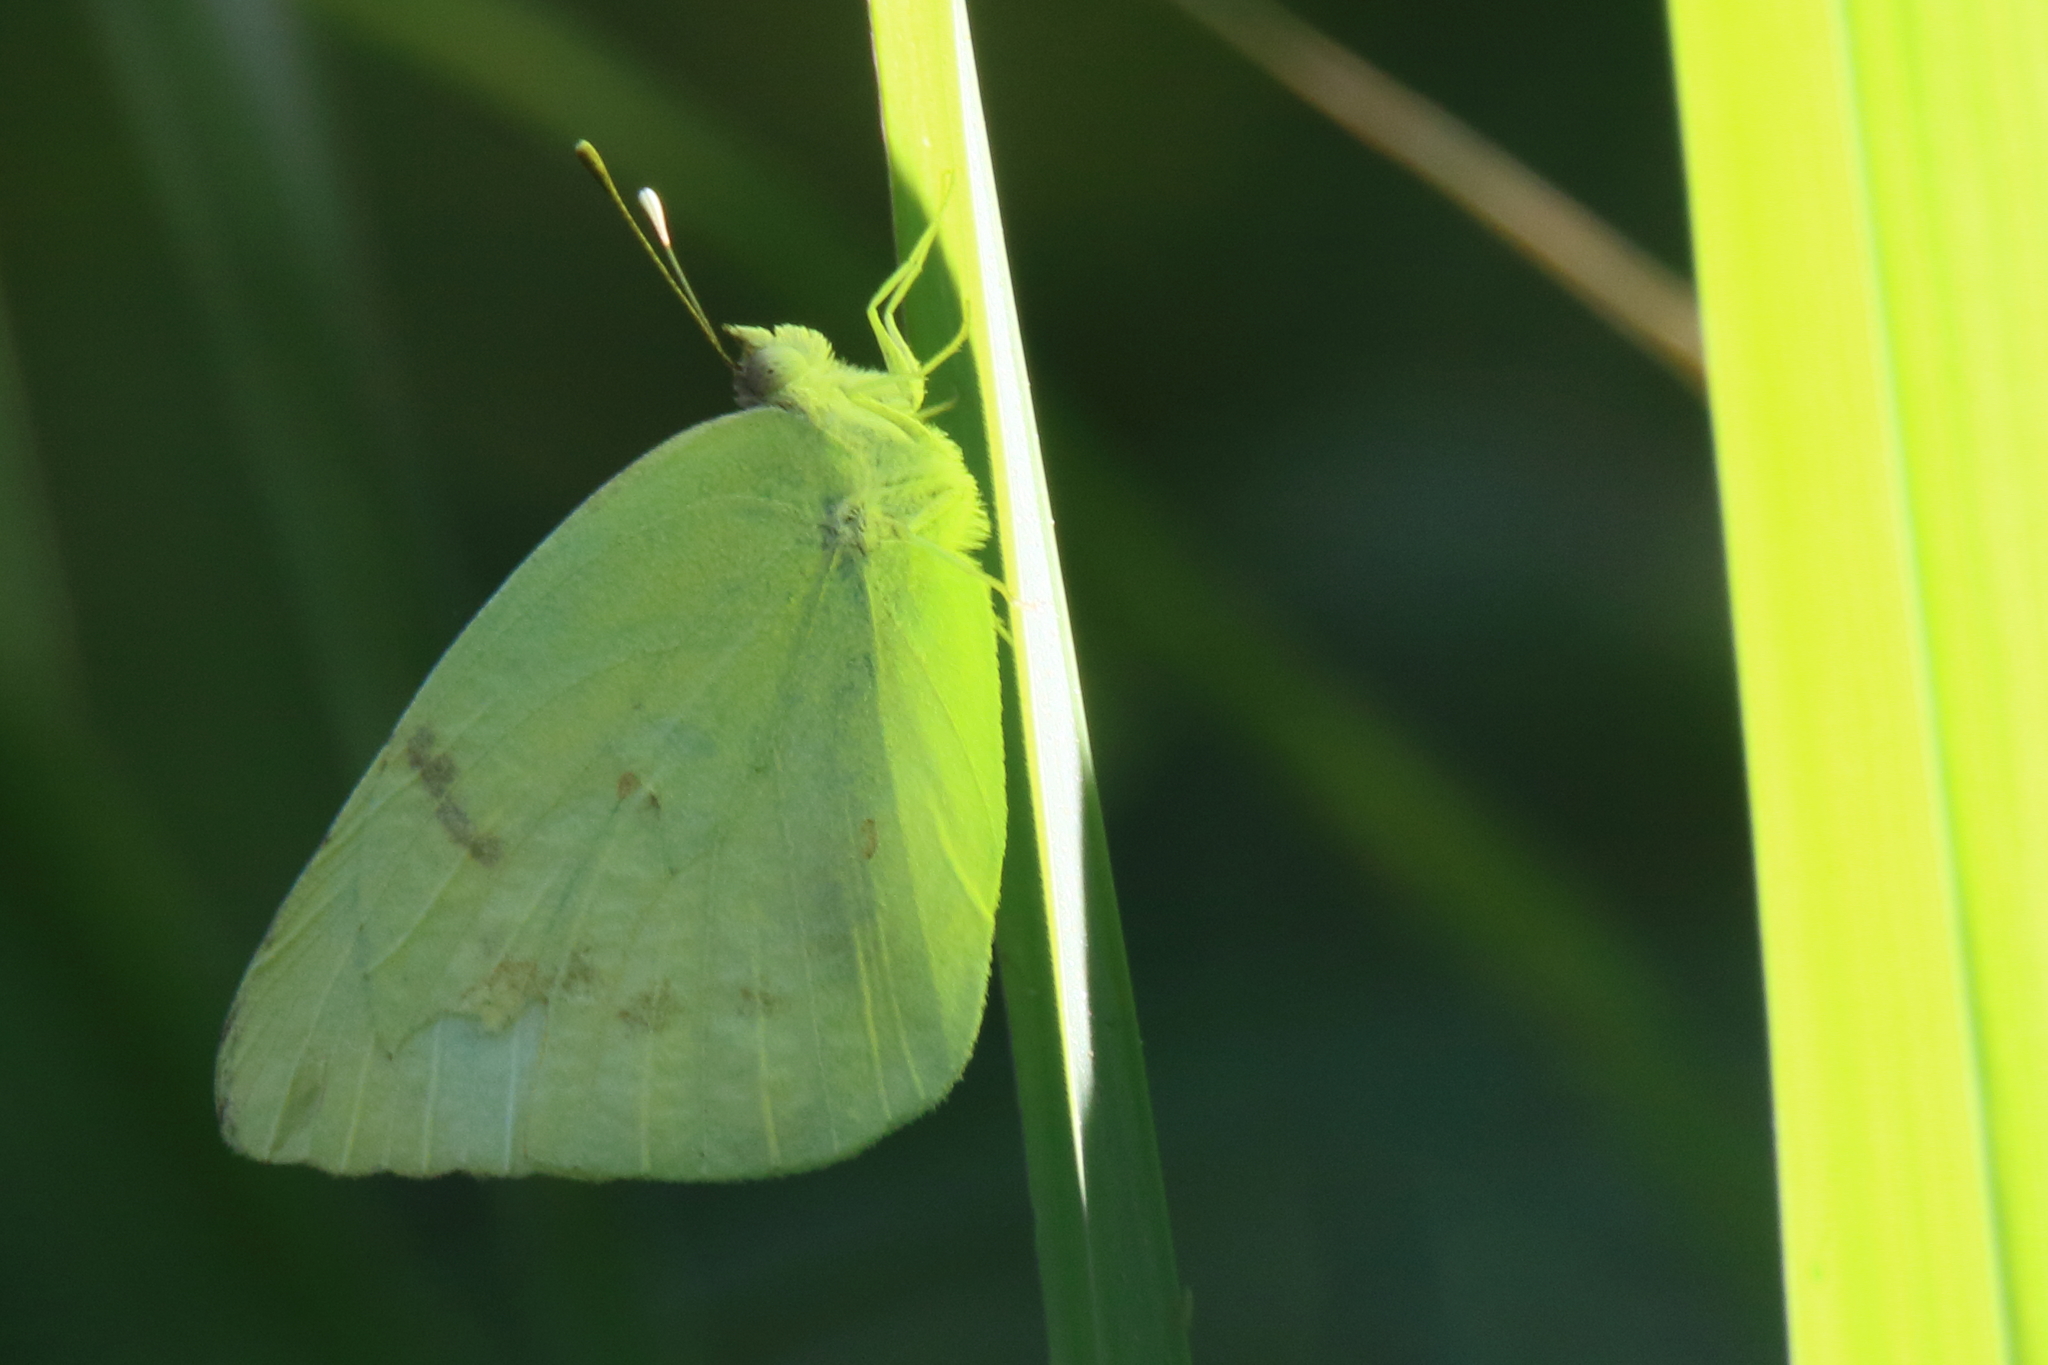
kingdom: Animalia
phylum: Arthropoda
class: Insecta
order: Lepidoptera
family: Pieridae
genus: Kricogonia
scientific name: Kricogonia lyside
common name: Guayacan sulphur,
